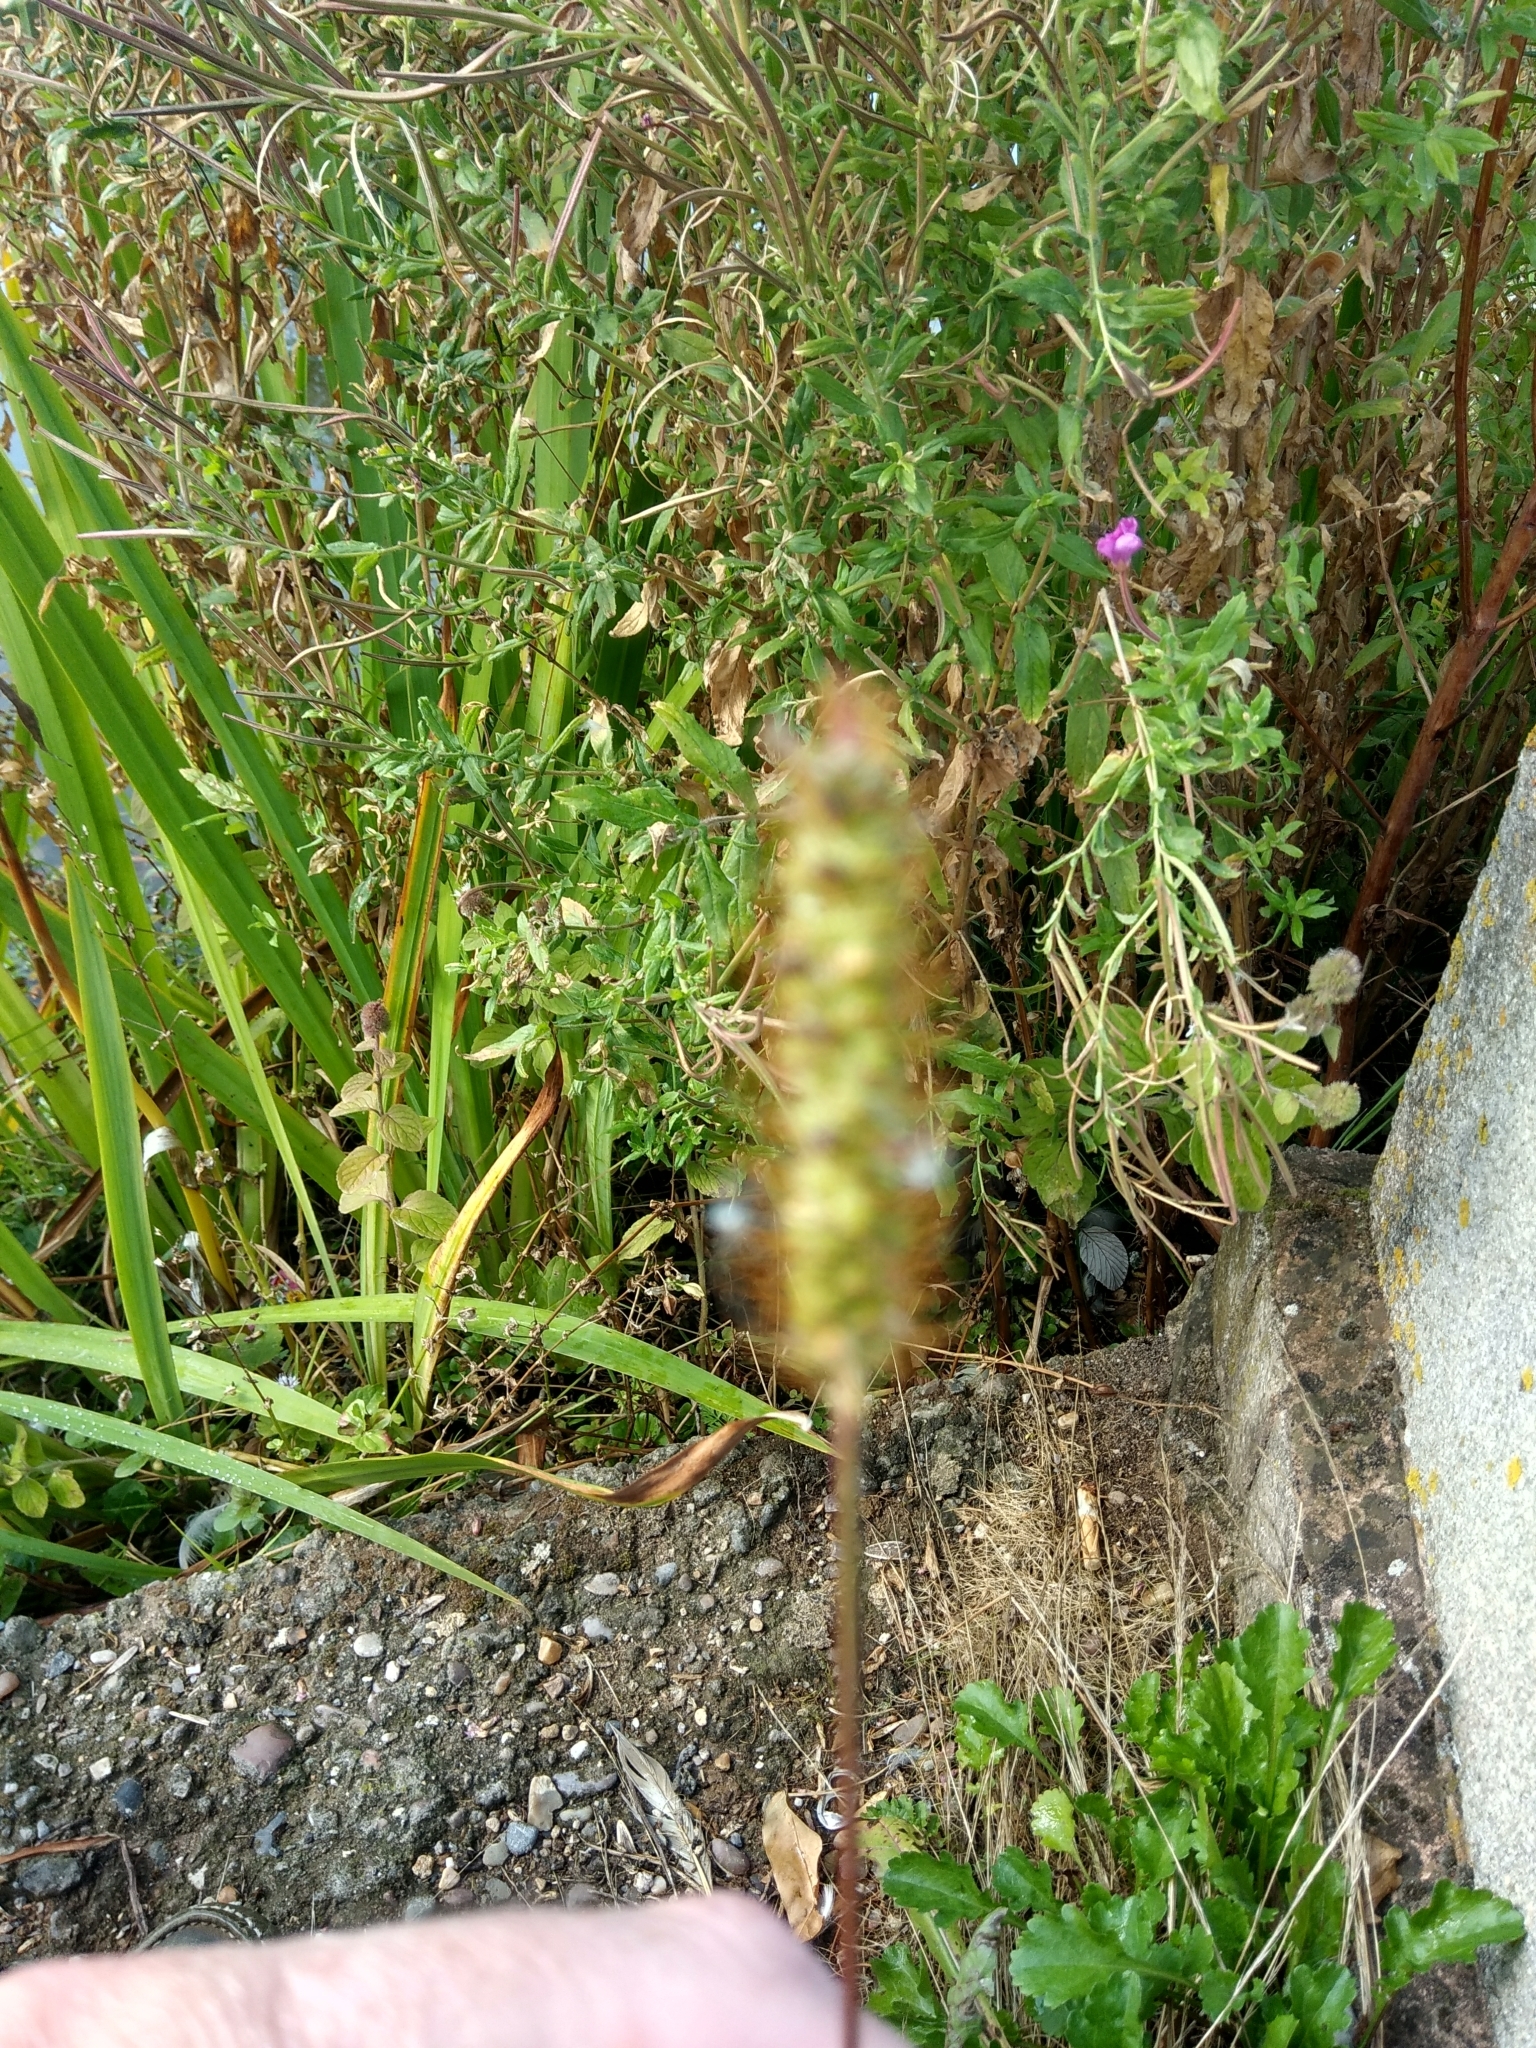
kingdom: Plantae
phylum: Tracheophyta
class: Liliopsida
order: Poales
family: Poaceae
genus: Setaria
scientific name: Setaria pumila
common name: Yellow bristle-grass
